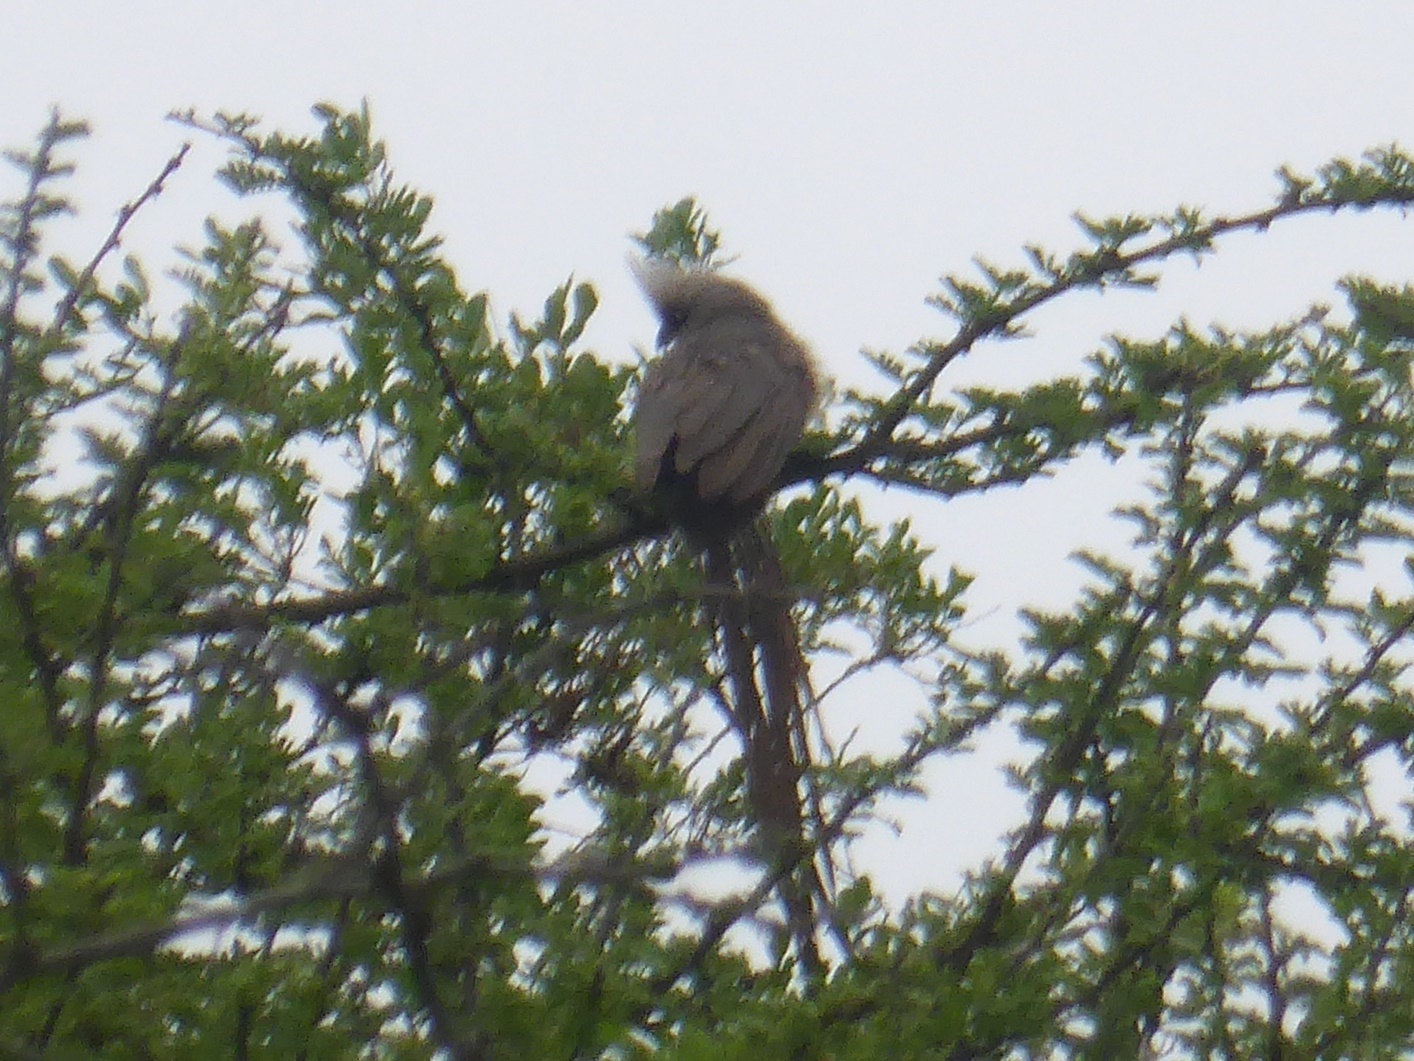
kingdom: Animalia
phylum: Chordata
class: Aves
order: Coliiformes
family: Coliidae
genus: Colius
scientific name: Colius striatus
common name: Speckled mousebird
